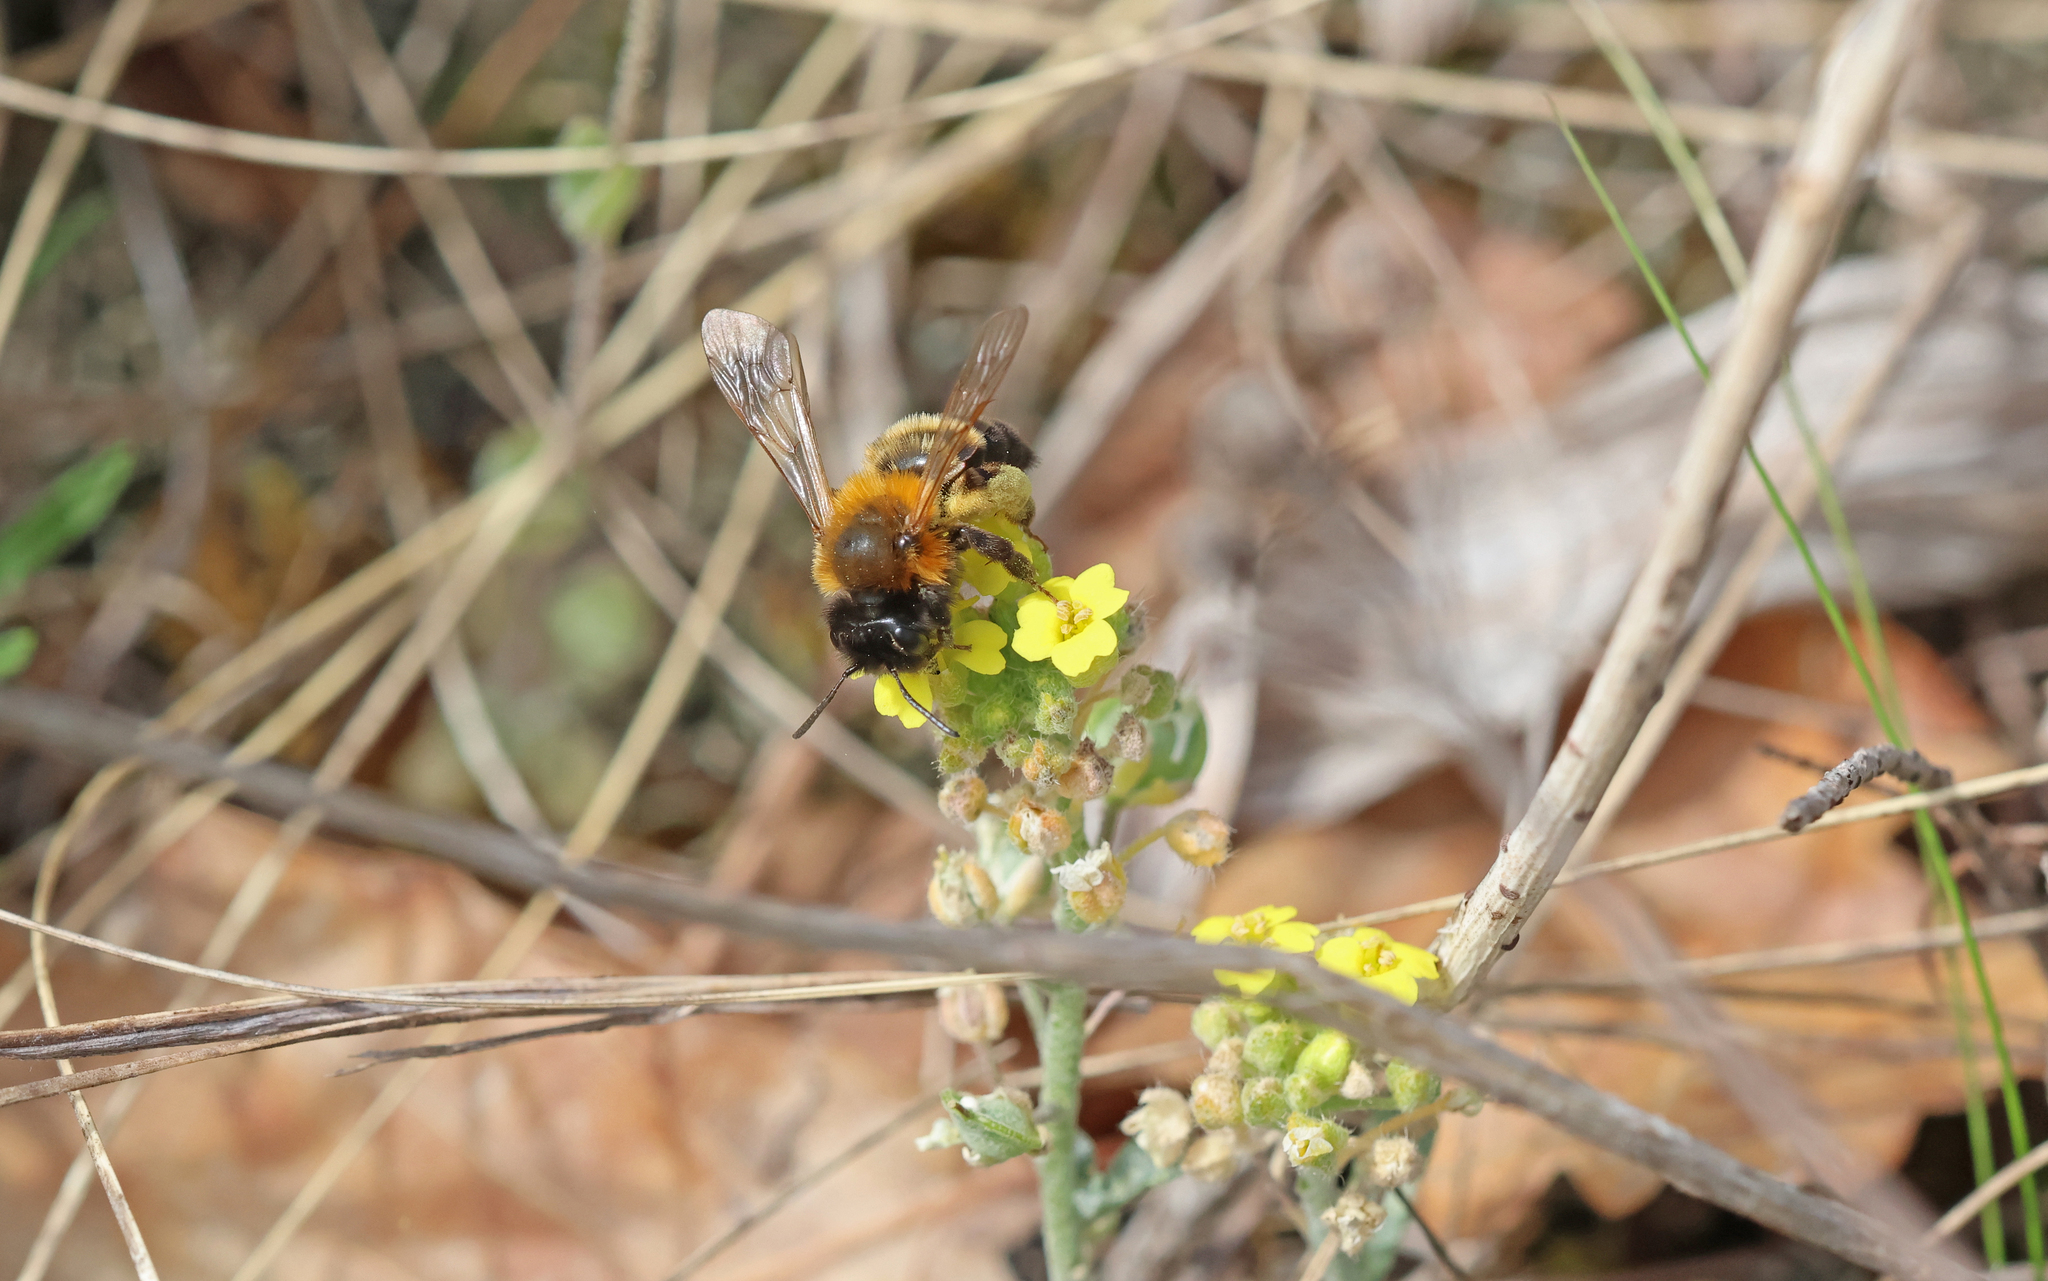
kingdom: Animalia
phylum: Arthropoda
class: Insecta
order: Hymenoptera
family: Andrenidae
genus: Andrena
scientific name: Andrena tscheki
